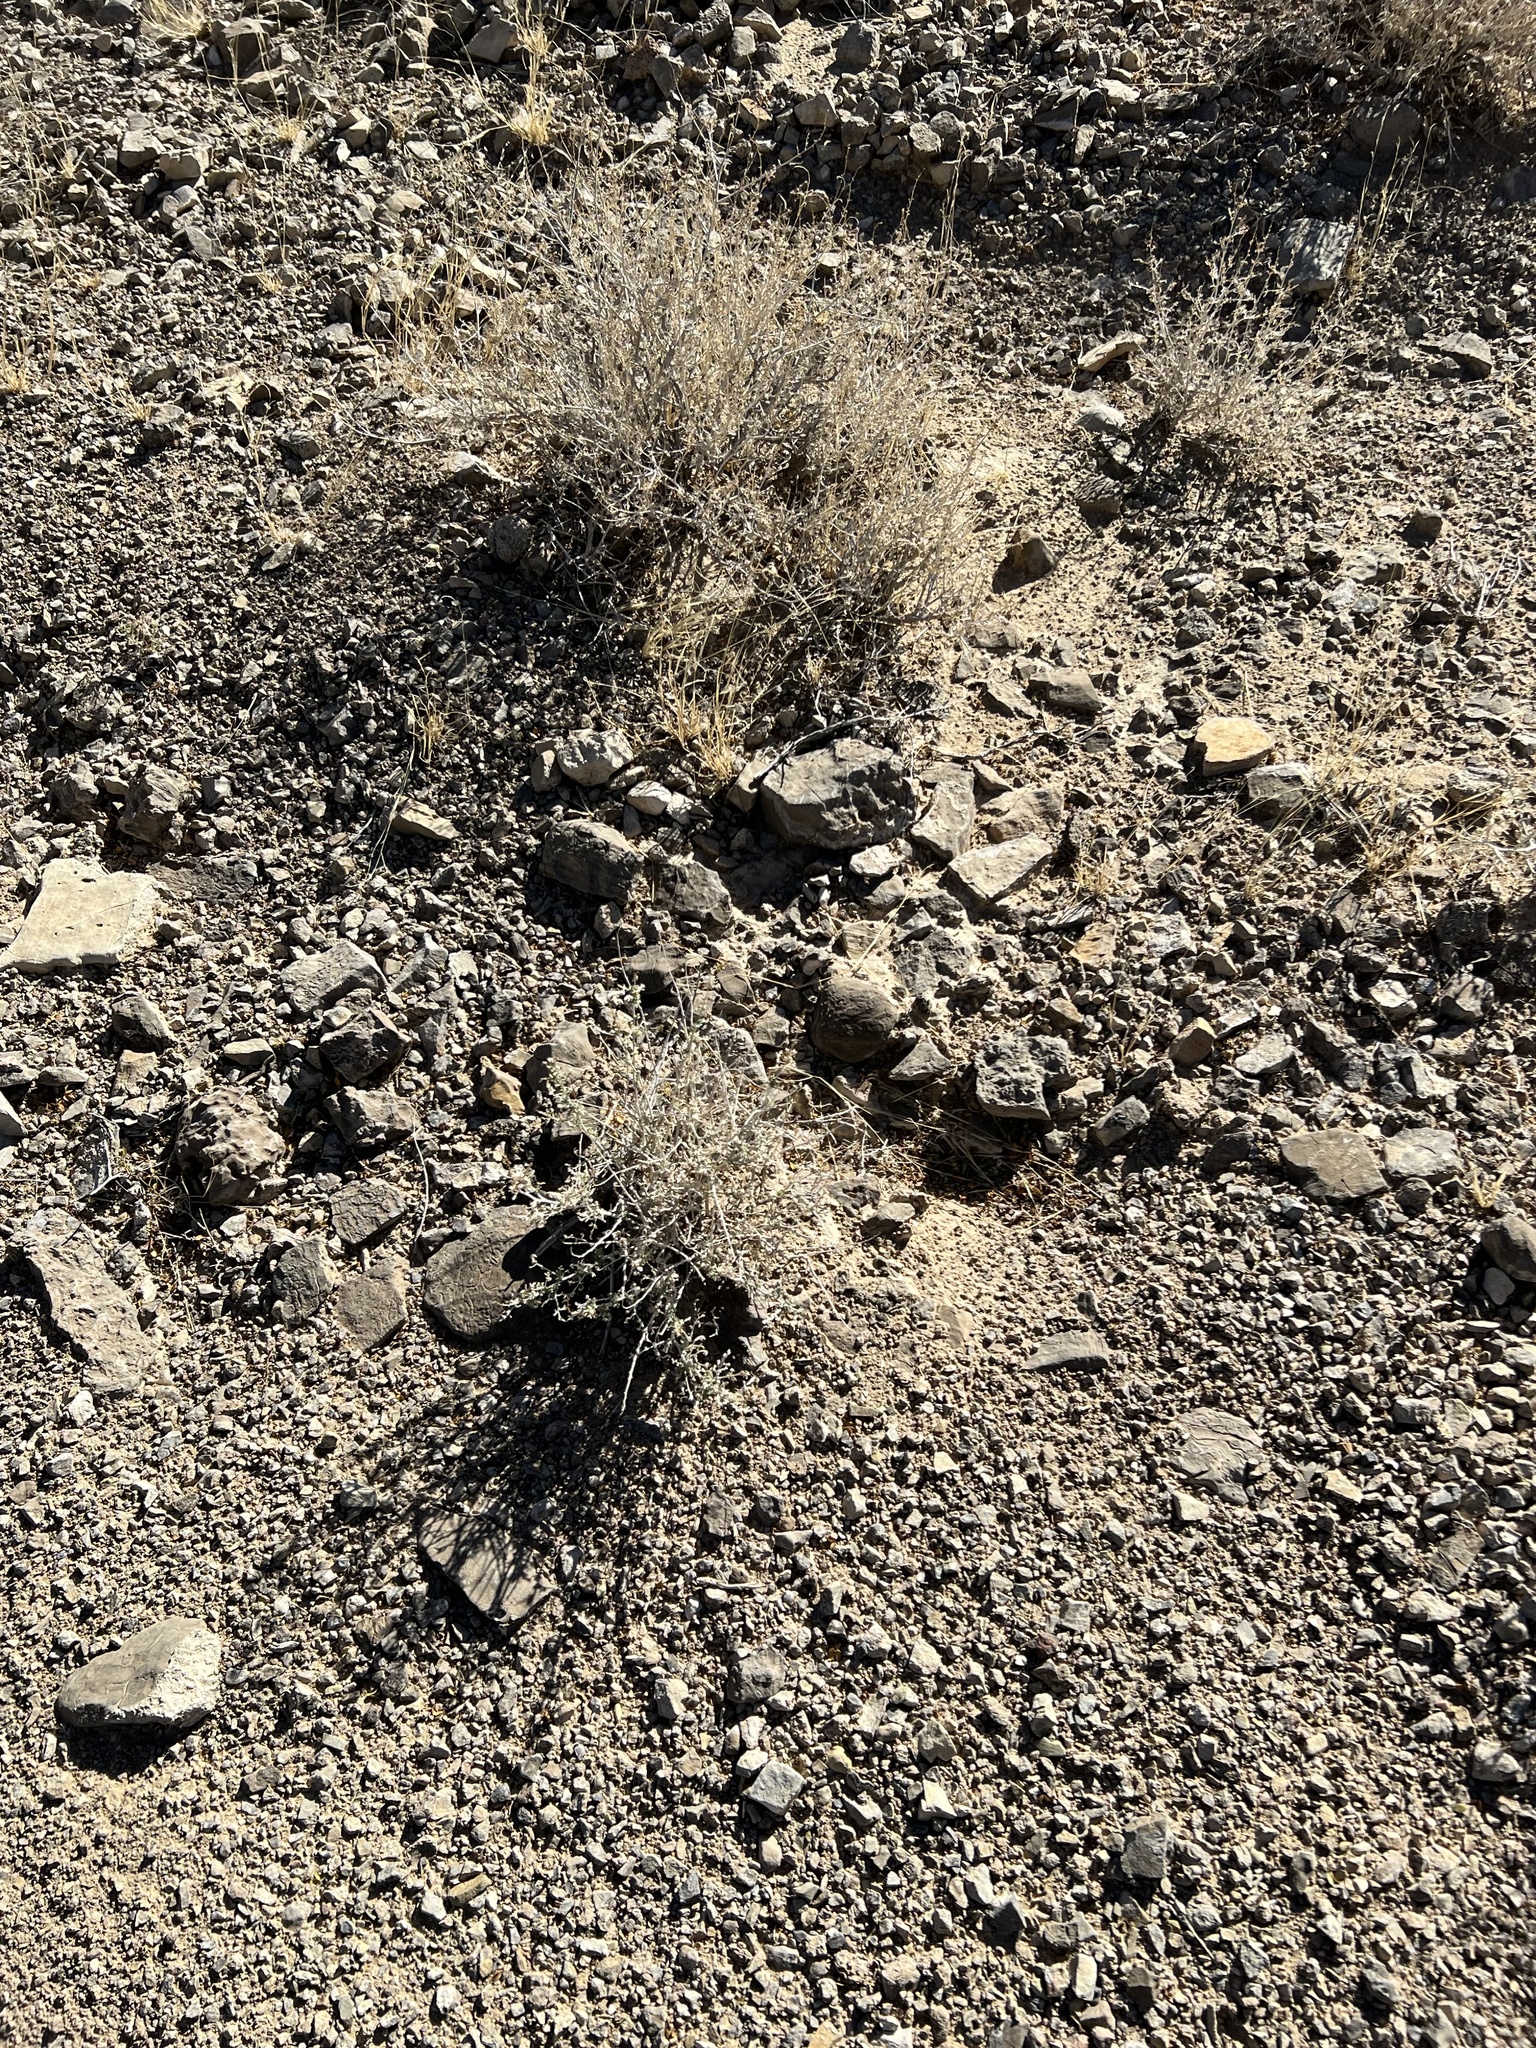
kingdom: Plantae
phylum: Tracheophyta
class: Magnoliopsida
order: Asterales
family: Asteraceae
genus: Ambrosia
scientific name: Ambrosia dumosa
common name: Bur-sage
